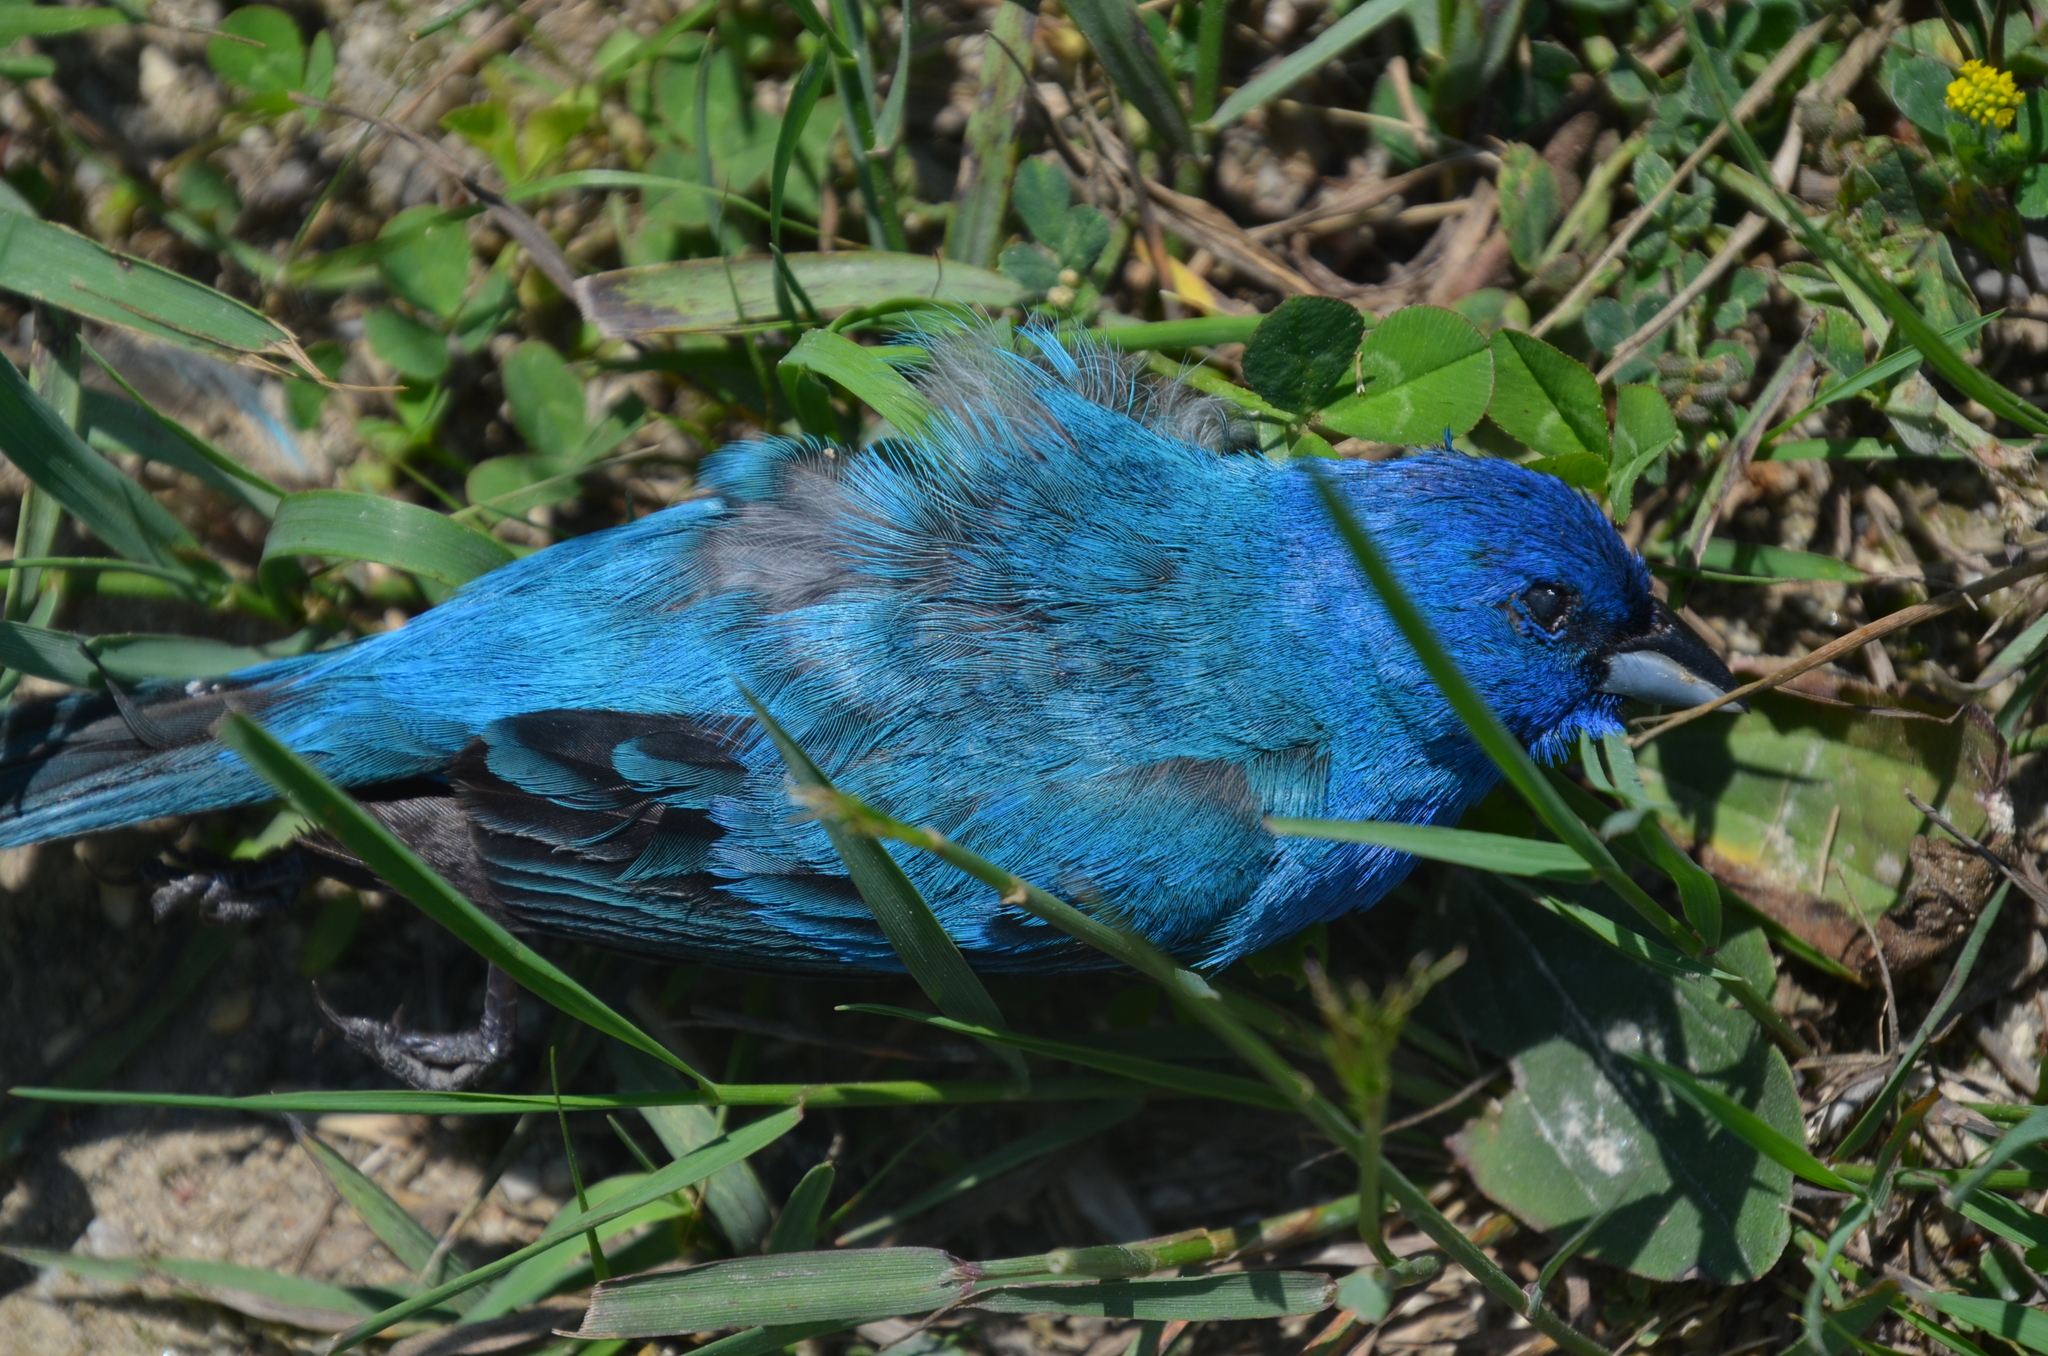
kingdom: Animalia
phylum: Chordata
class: Aves
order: Passeriformes
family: Cardinalidae
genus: Passerina
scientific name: Passerina cyanea
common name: Indigo bunting
